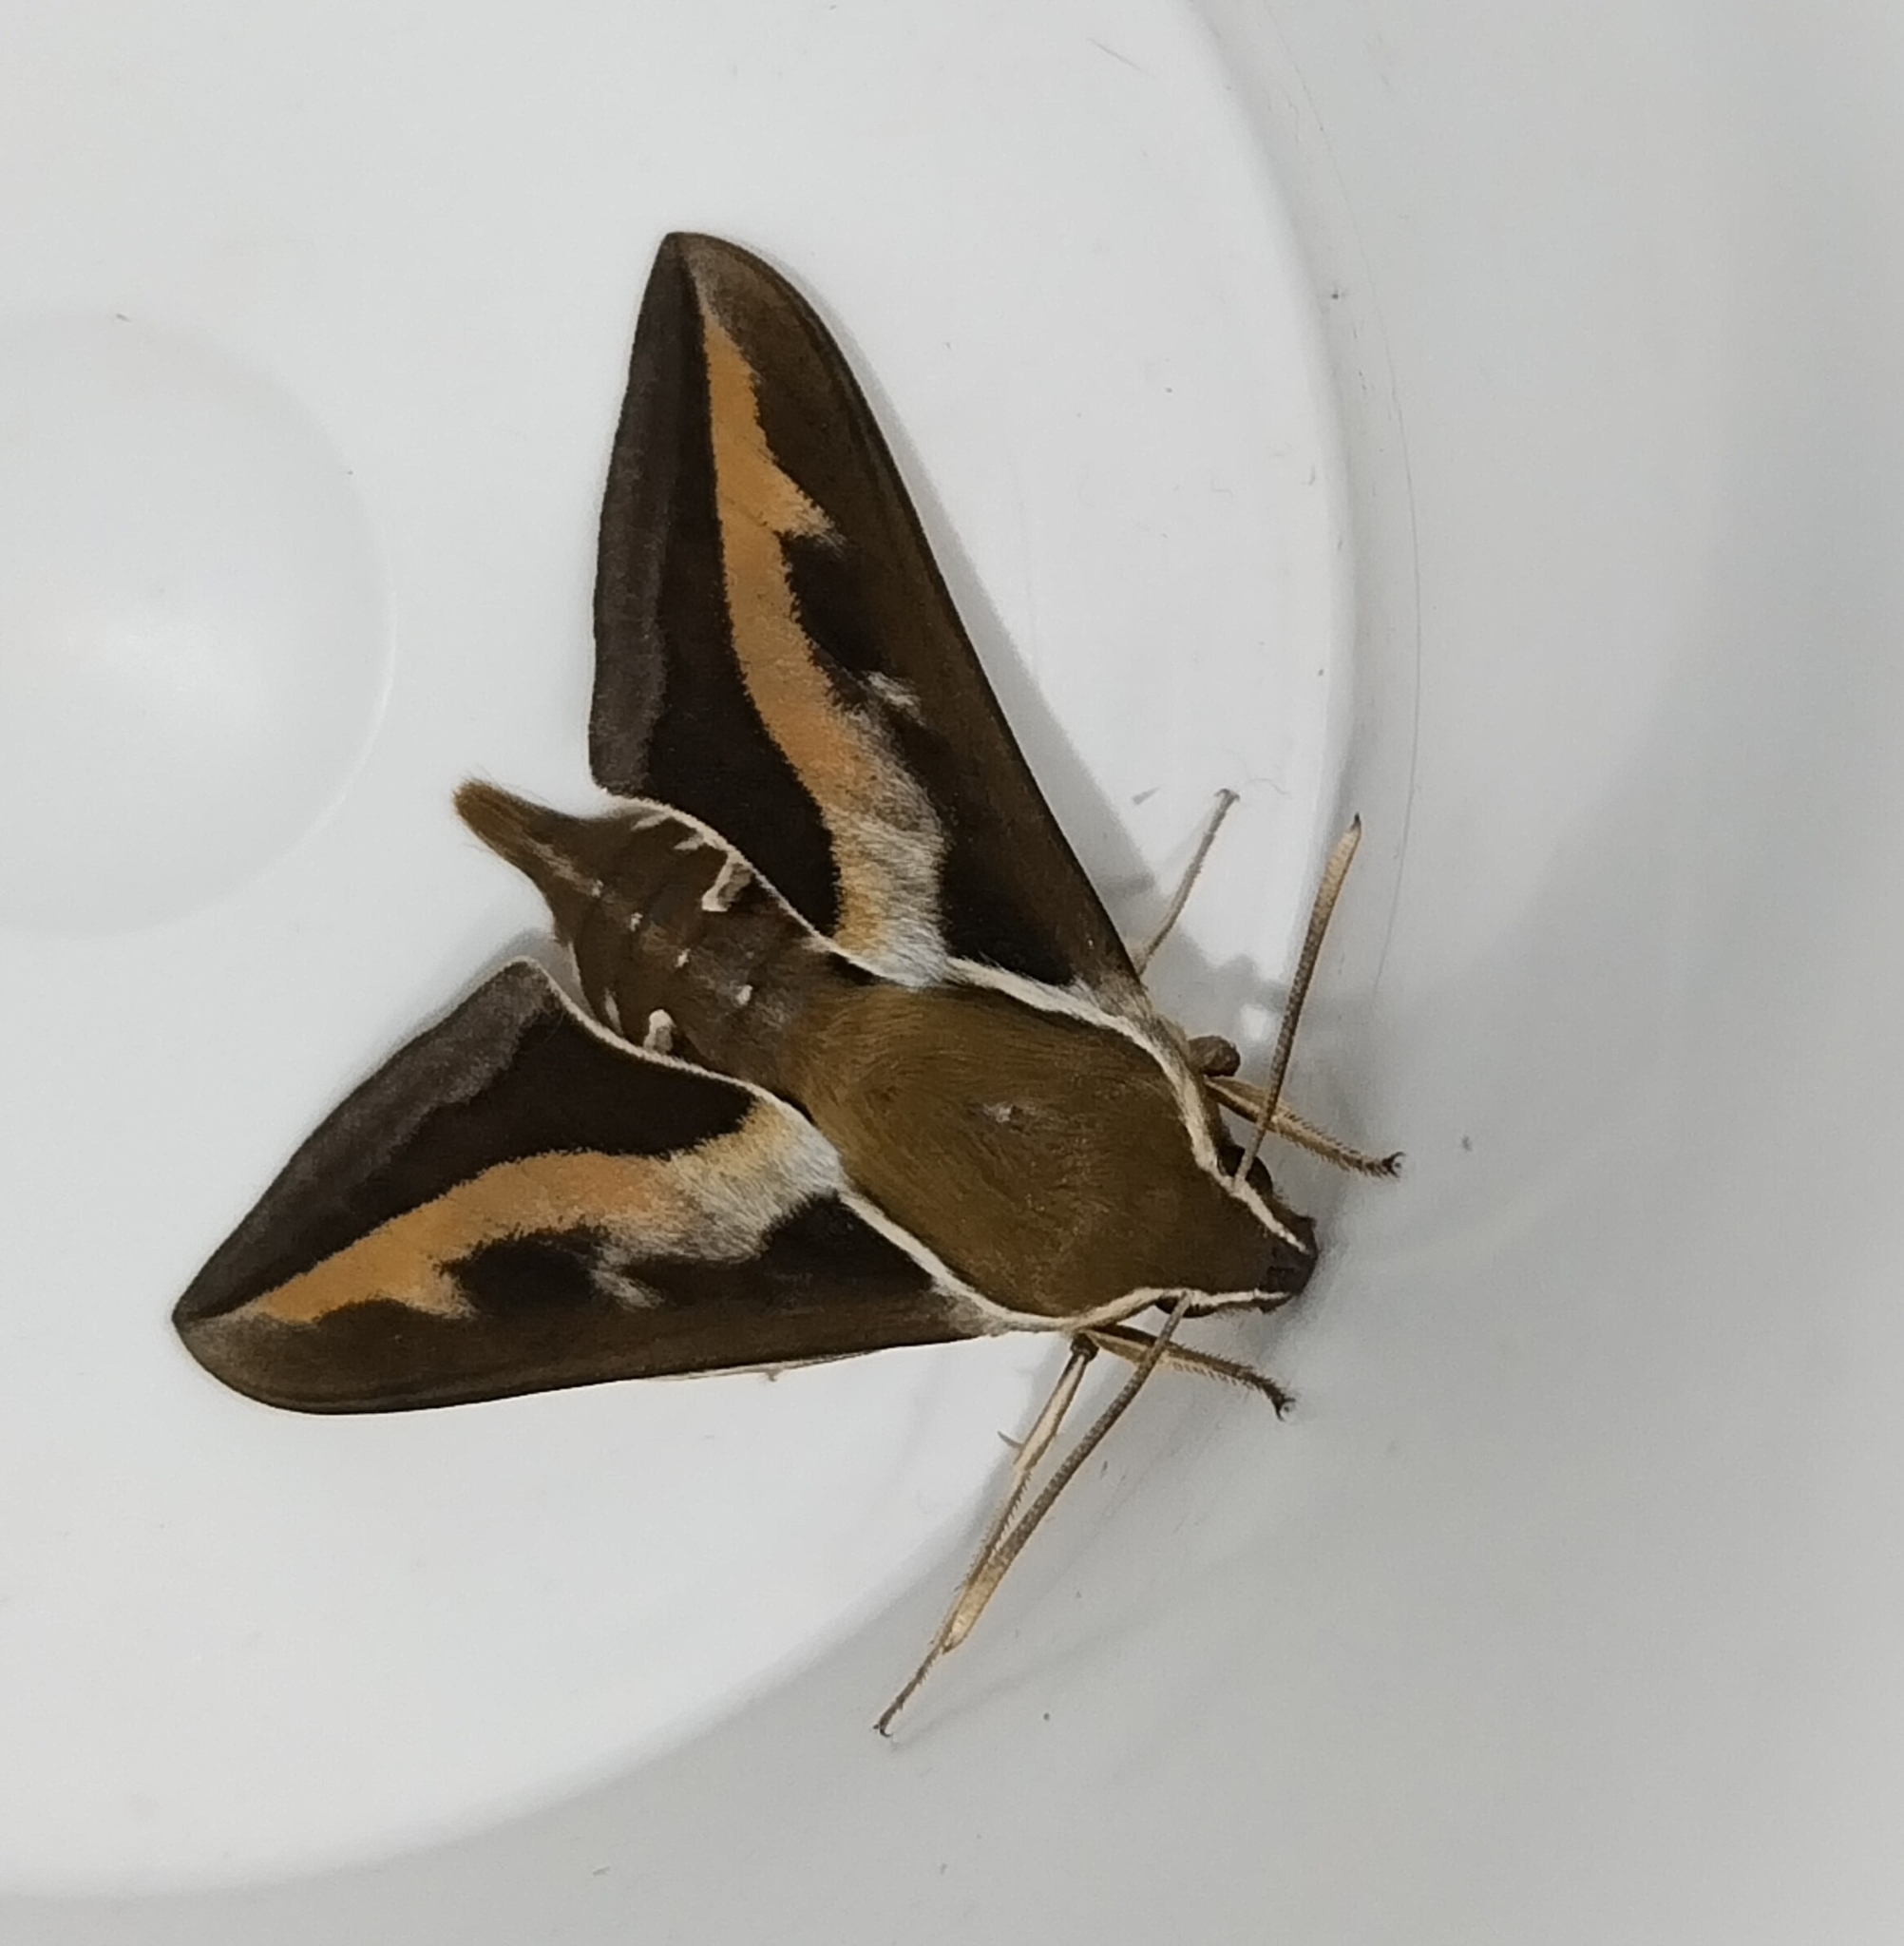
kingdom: Animalia
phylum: Arthropoda
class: Insecta
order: Lepidoptera
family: Sphingidae
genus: Hyles
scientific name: Hyles gallii
